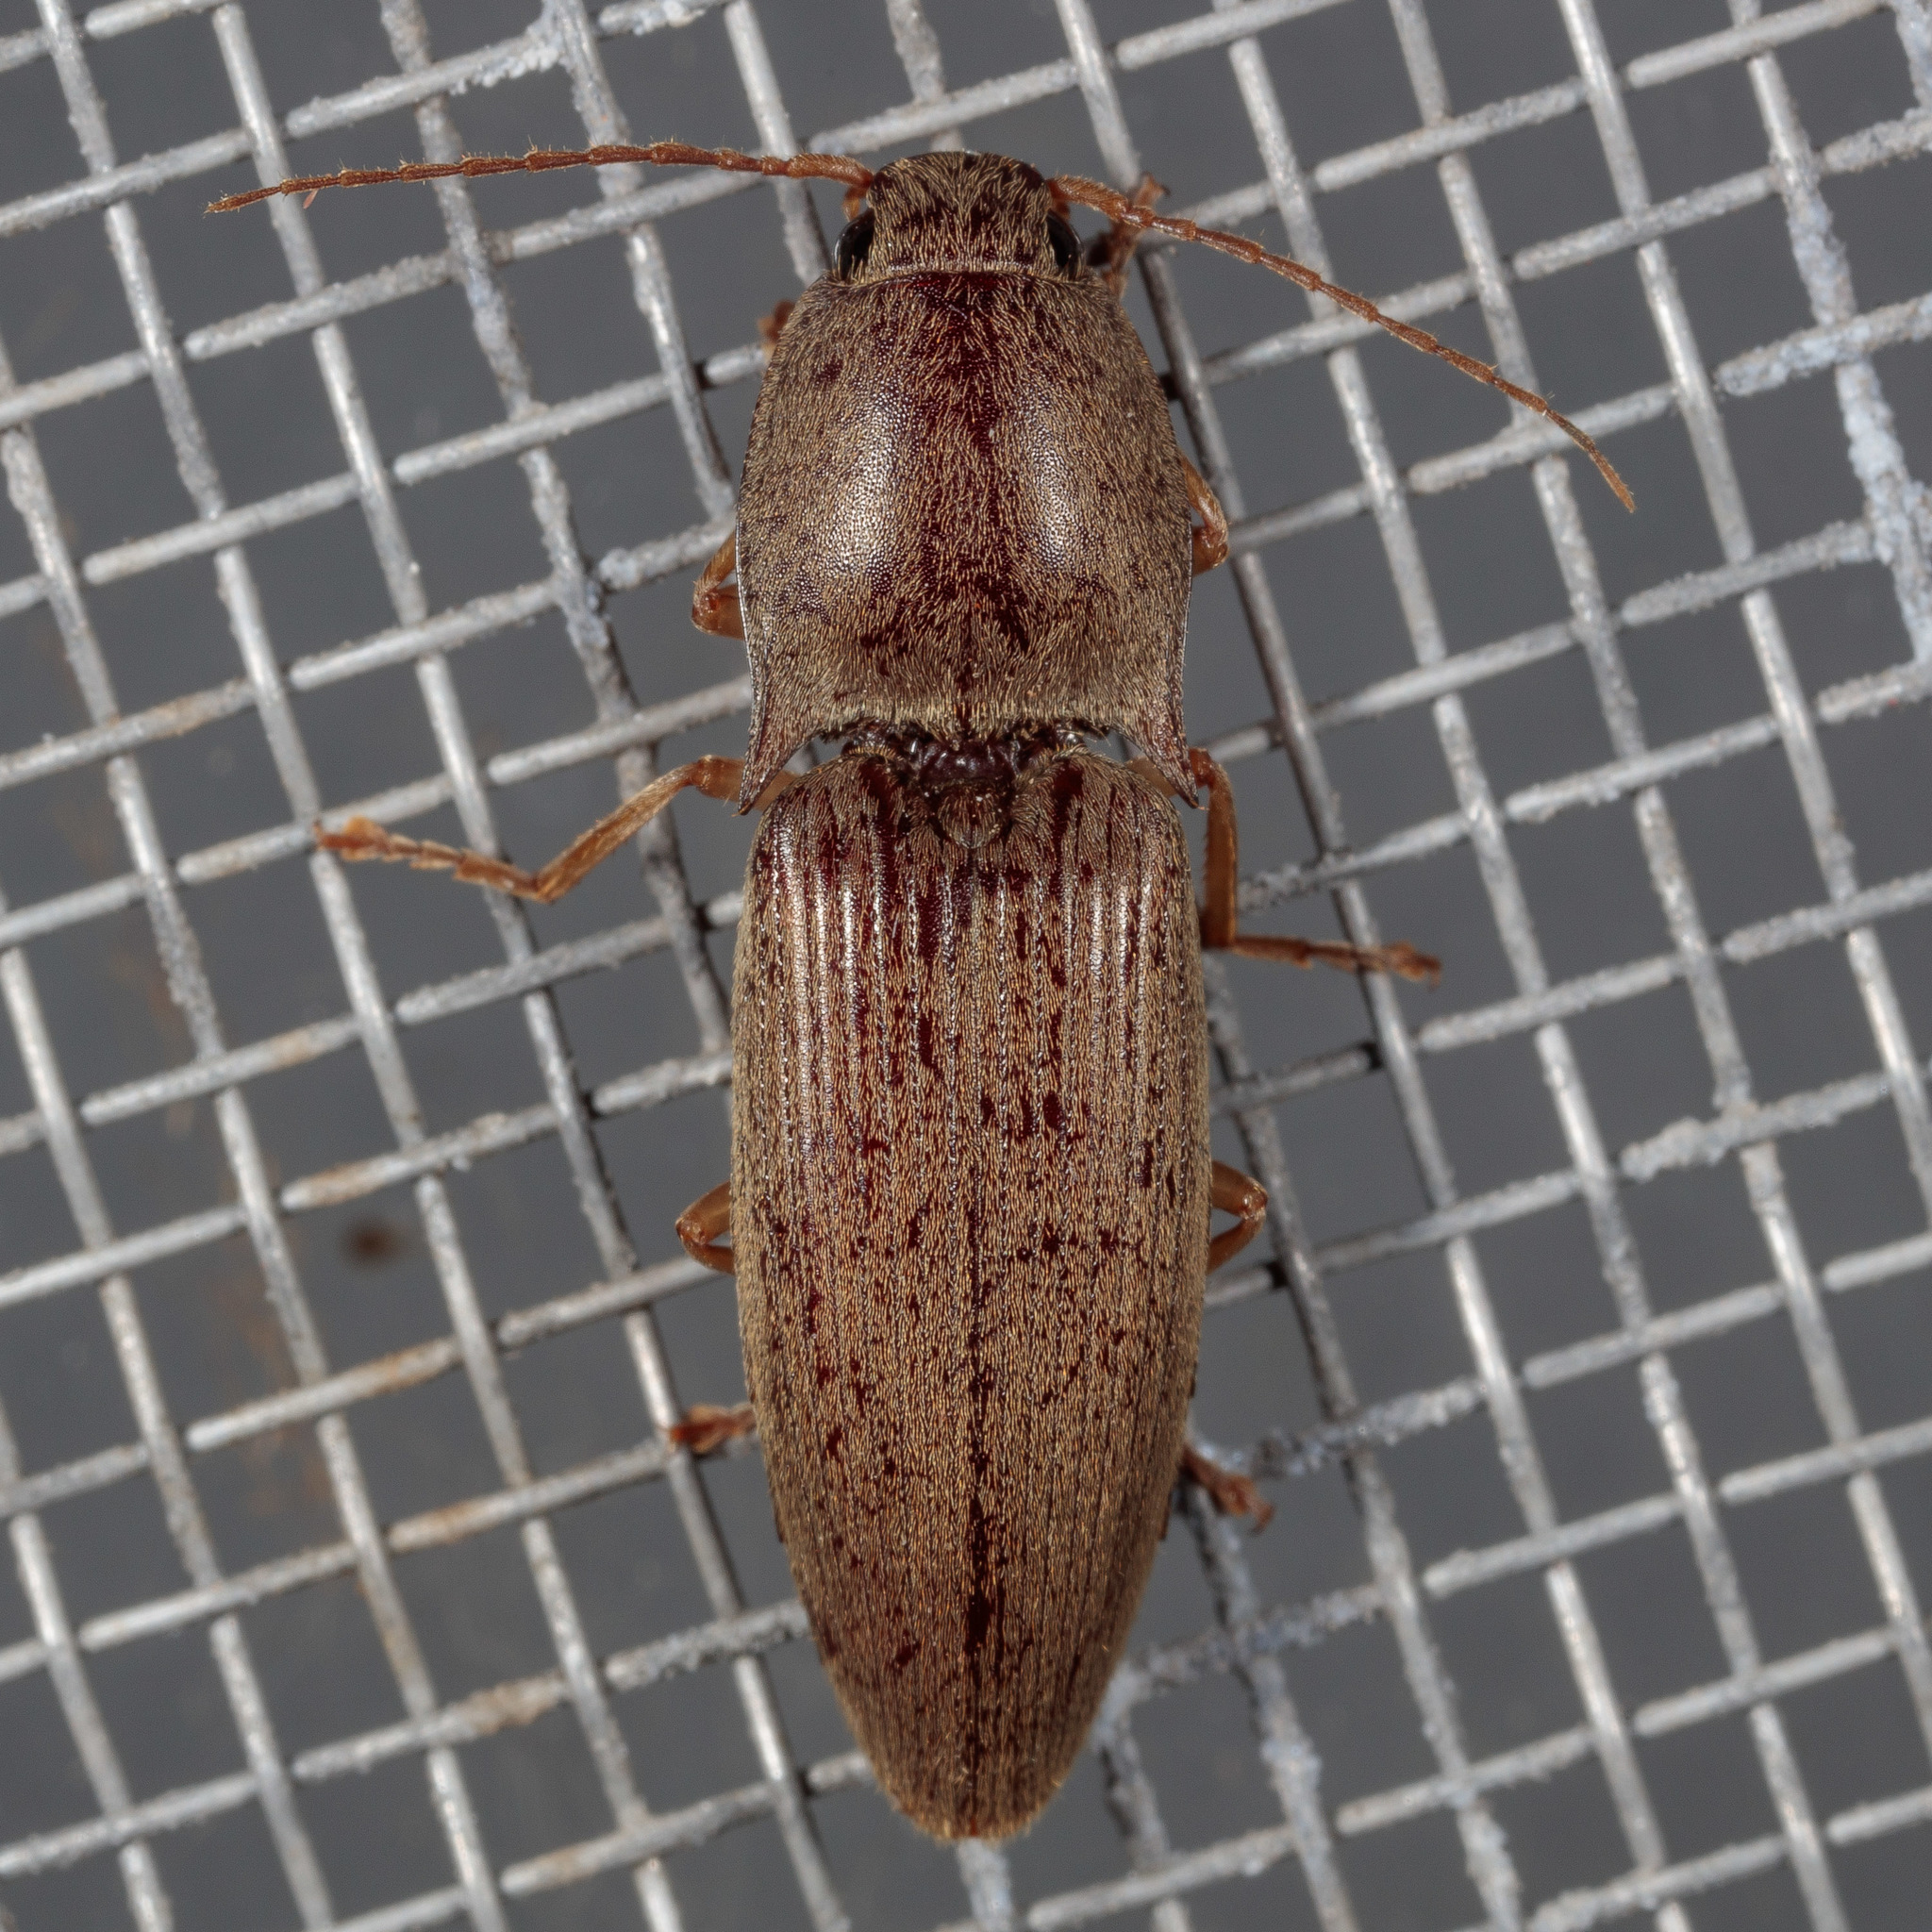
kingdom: Animalia
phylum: Arthropoda
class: Insecta
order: Coleoptera
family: Elateridae
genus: Monocrepidius
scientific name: Monocrepidius lividus
